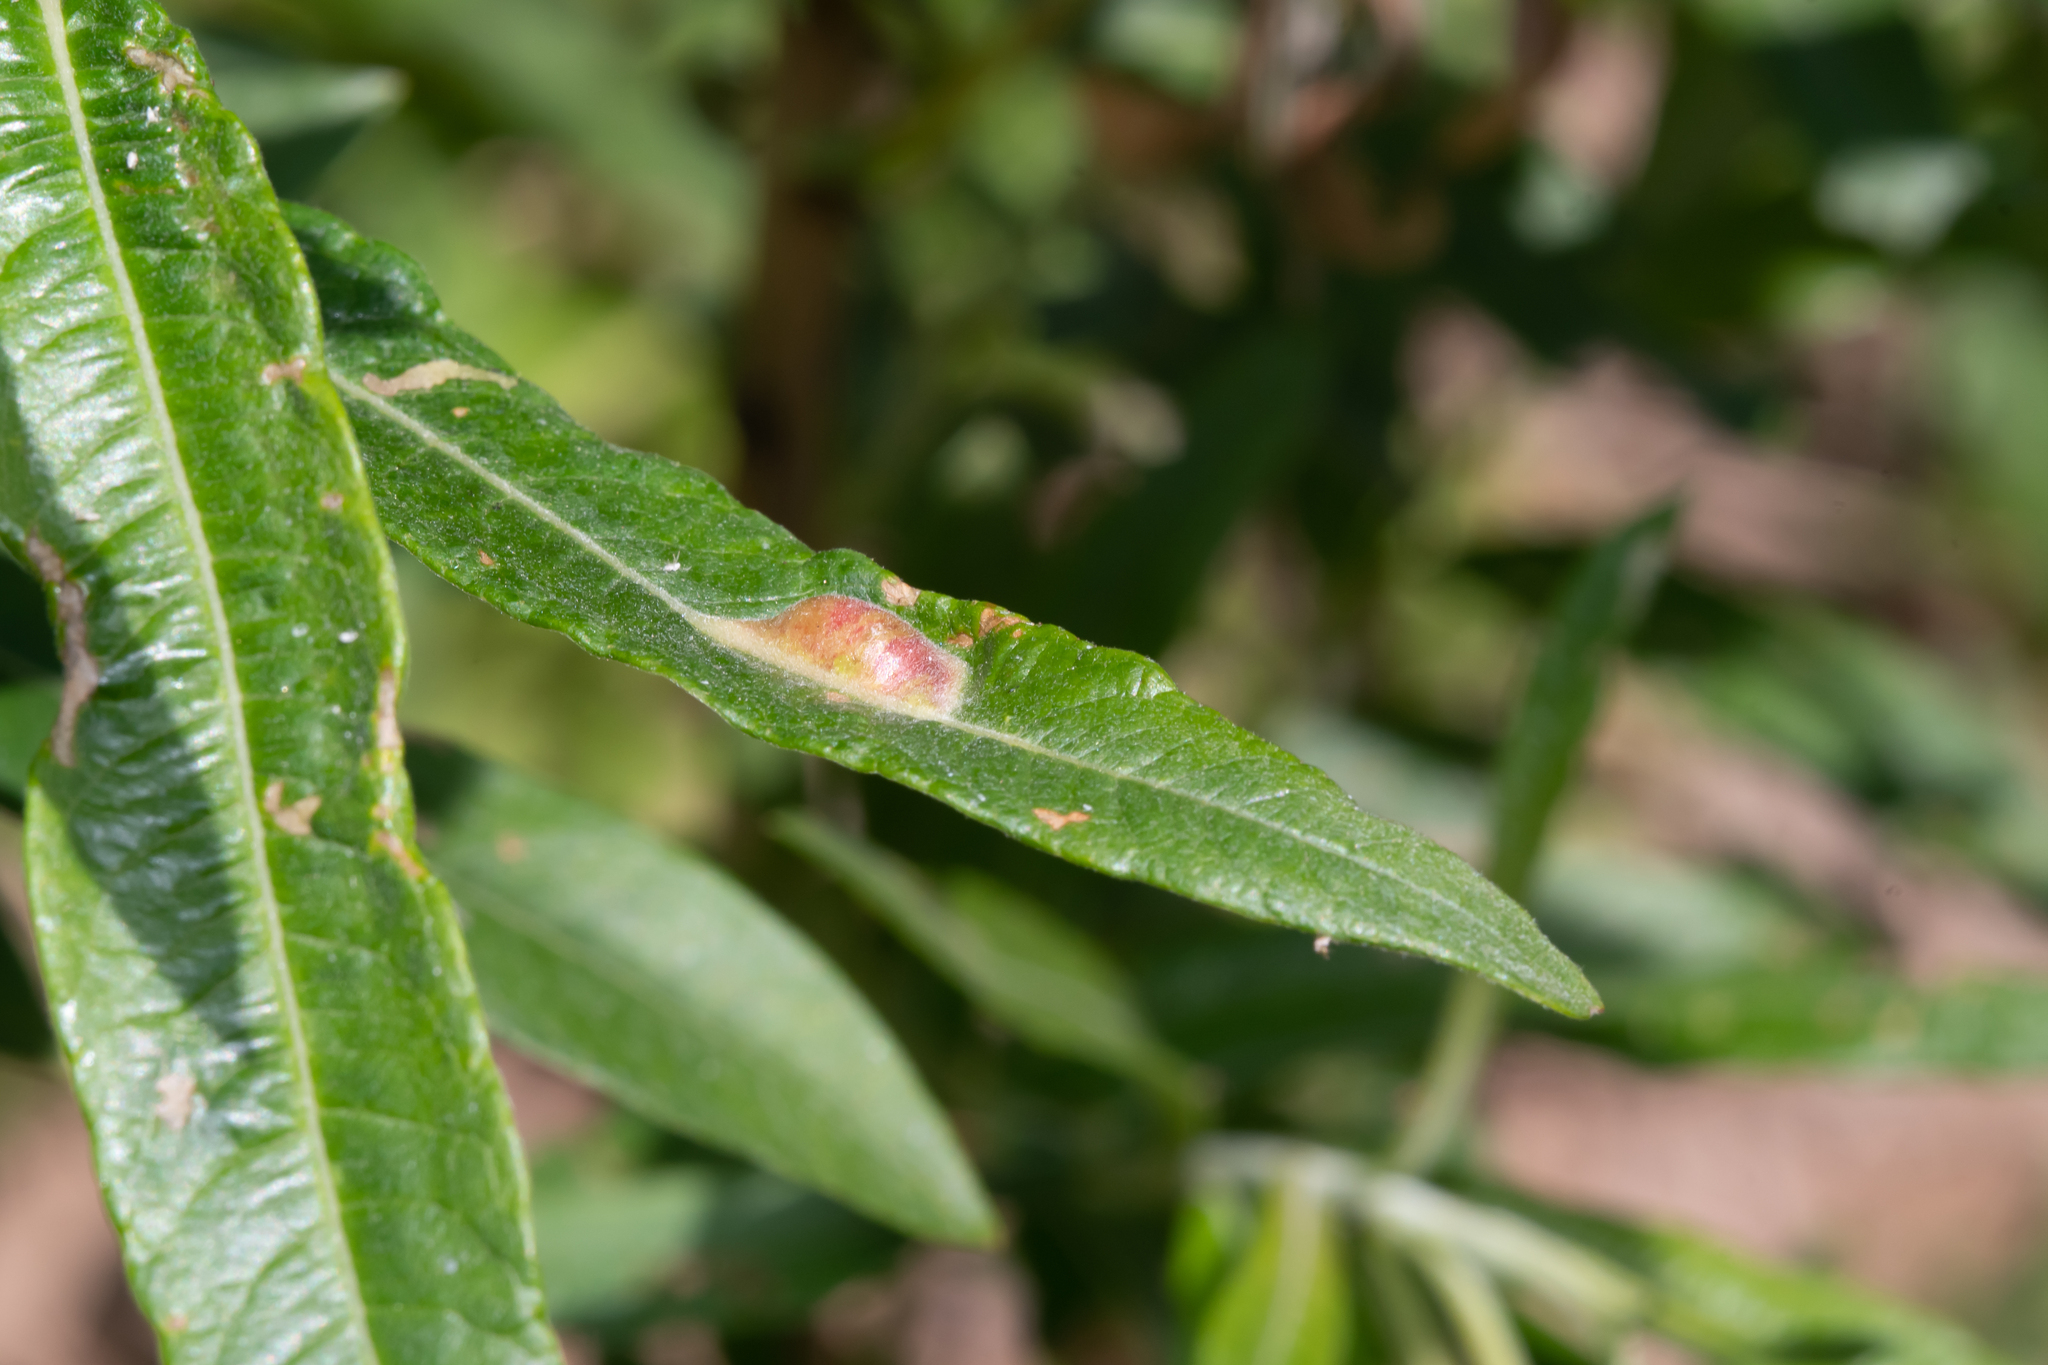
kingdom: Animalia
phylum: Arthropoda
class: Insecta
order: Hymenoptera
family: Tenthredinidae
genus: Pontania
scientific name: Pontania proxima
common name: Common sawfly
